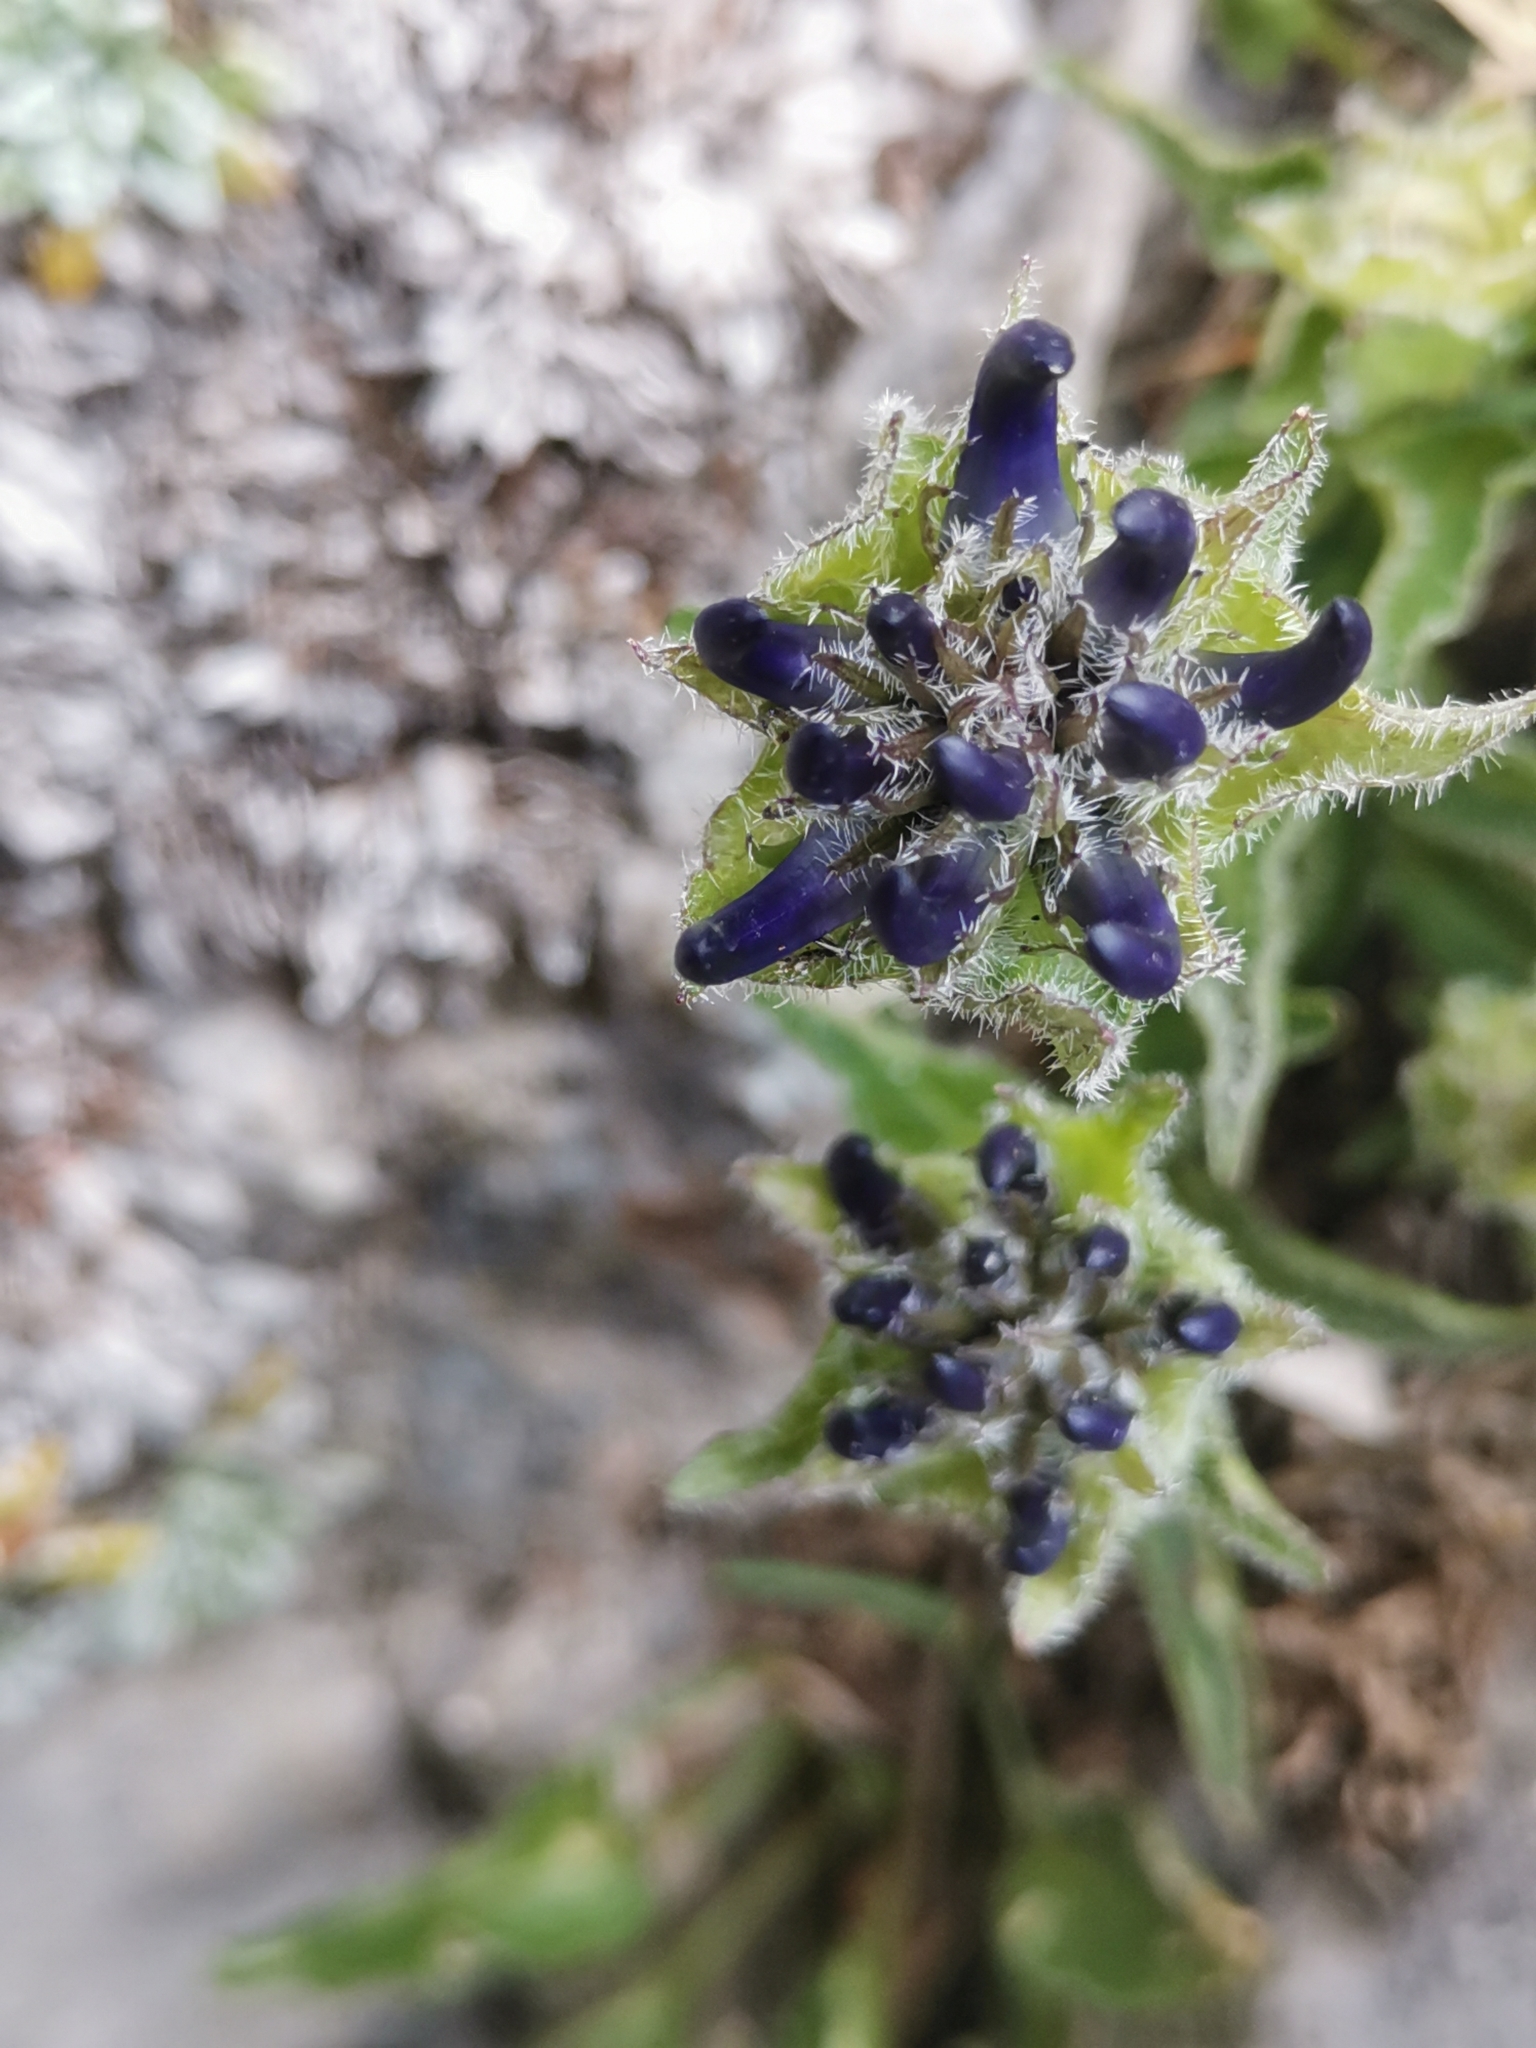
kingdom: Plantae
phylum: Tracheophyta
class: Magnoliopsida
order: Asterales
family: Campanulaceae
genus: Phyteuma
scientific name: Phyteuma sieberi
